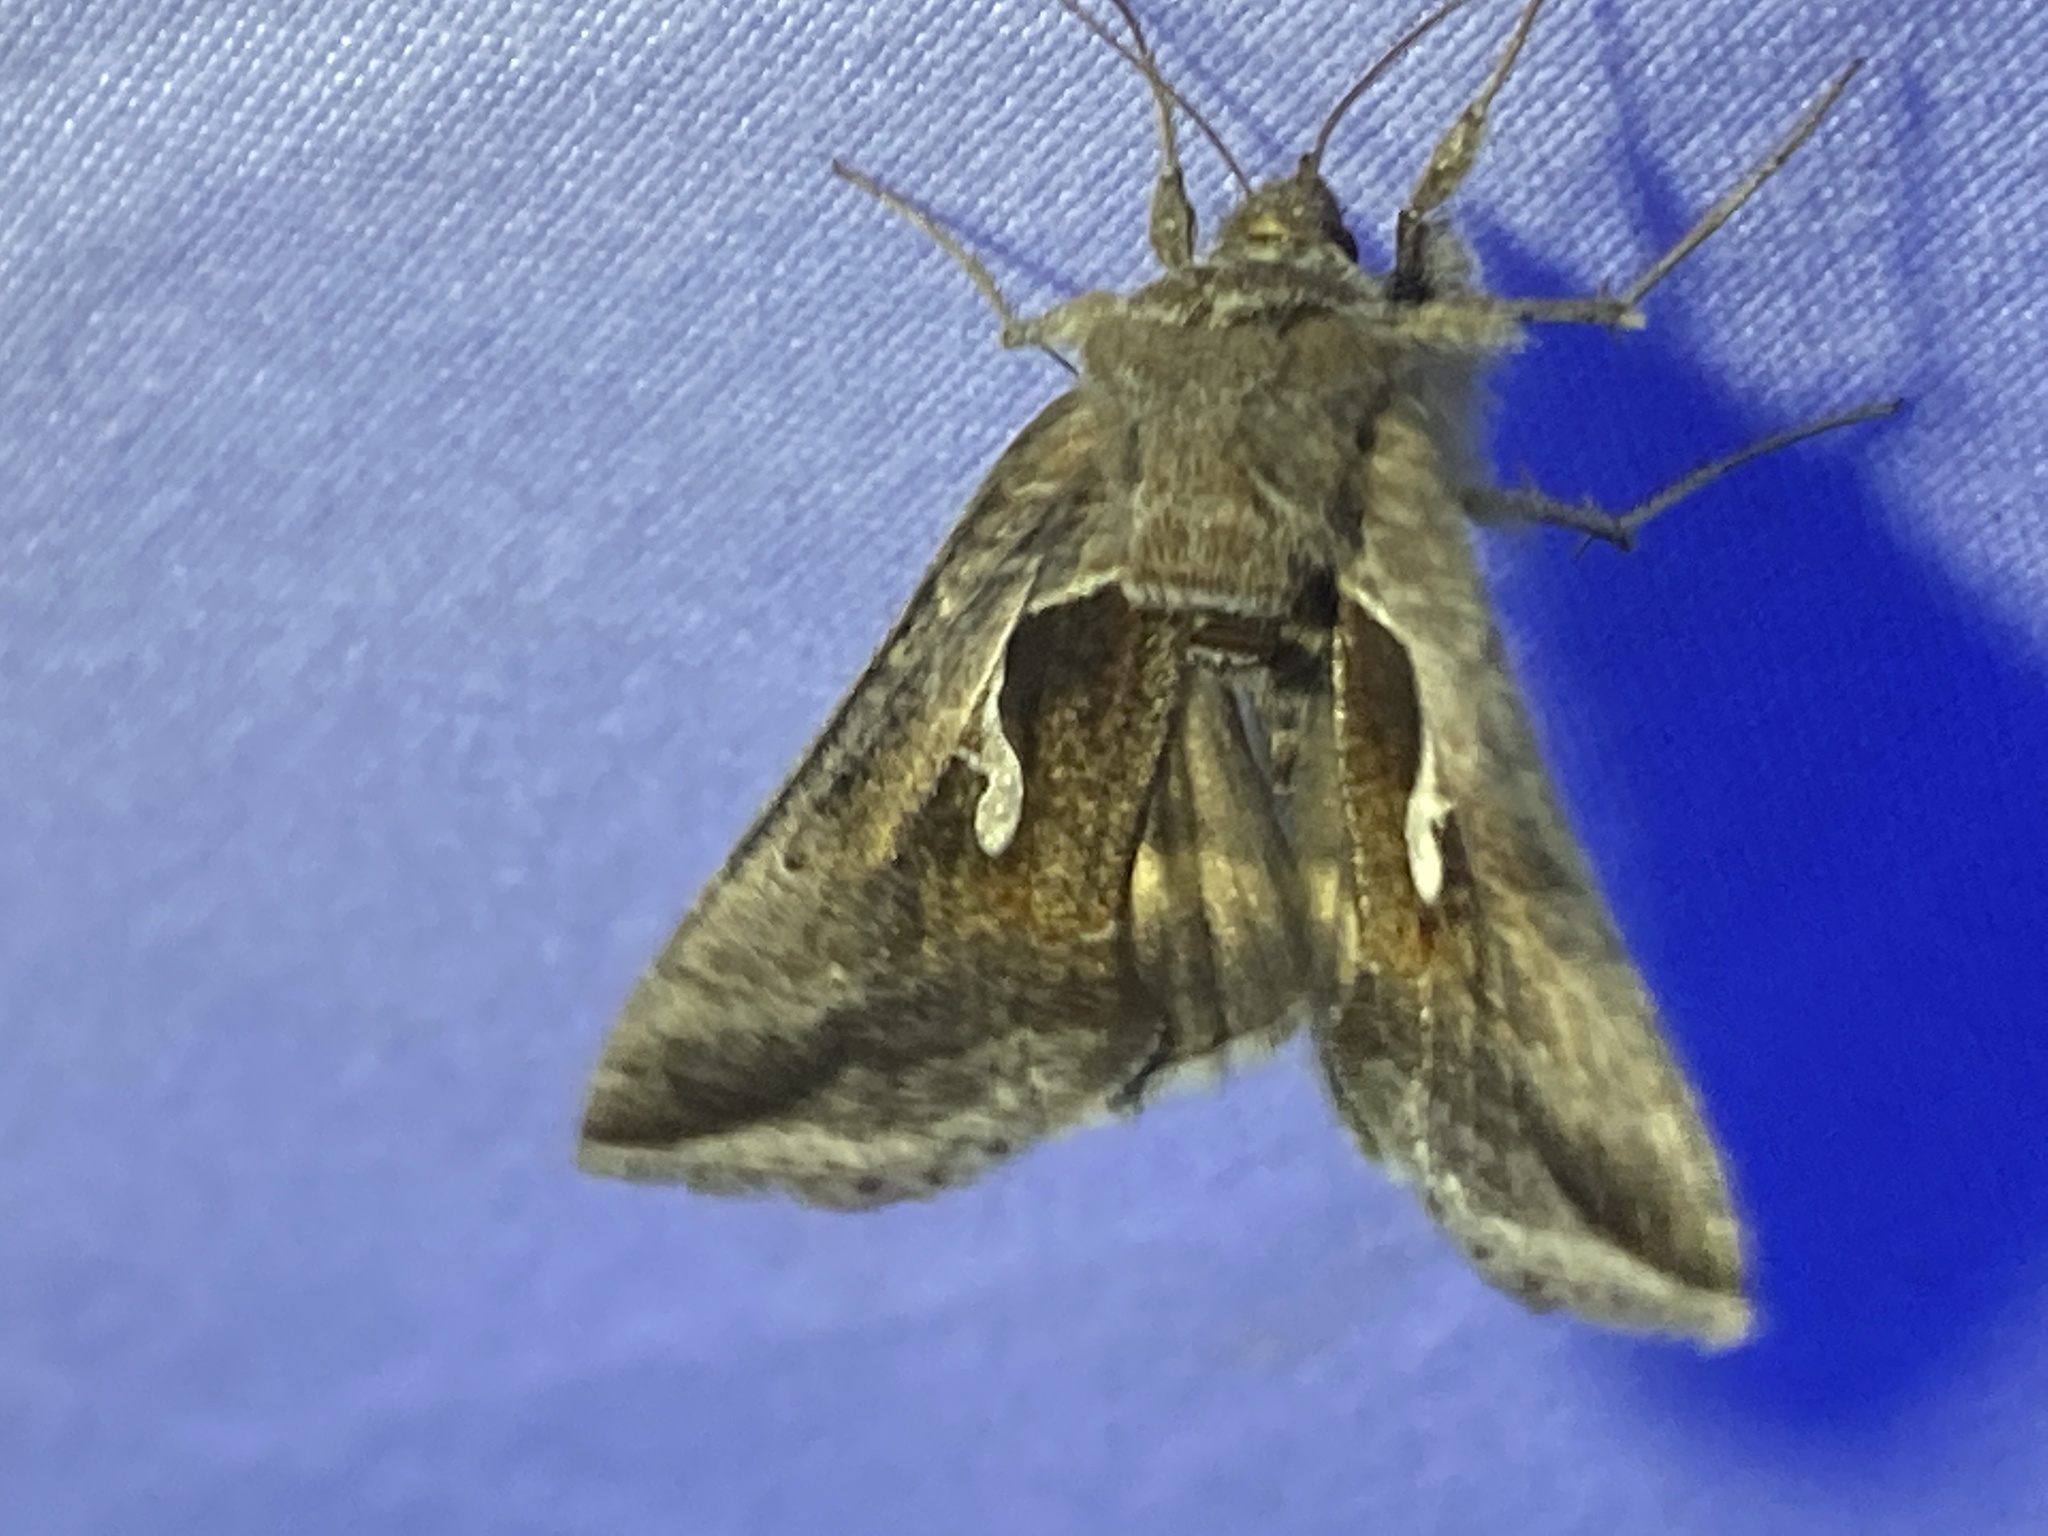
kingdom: Animalia
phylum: Arthropoda
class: Insecta
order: Lepidoptera
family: Noctuidae
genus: Anagrapha
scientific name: Anagrapha falcifera
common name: Celery looper
